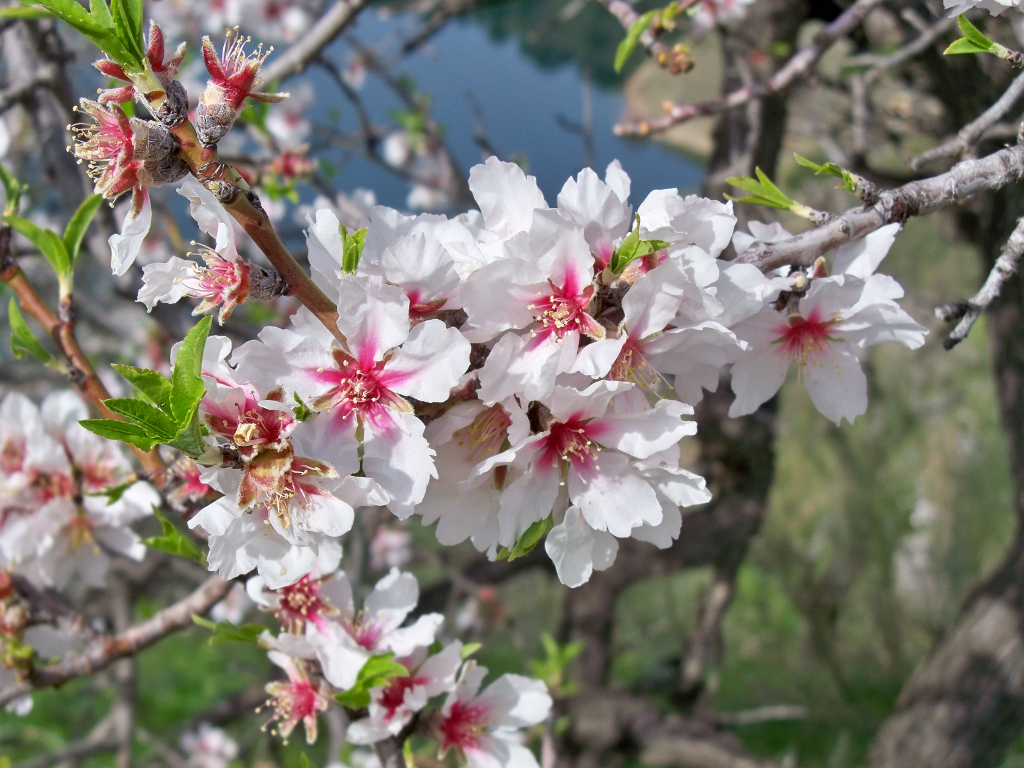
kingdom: Plantae
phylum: Tracheophyta
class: Magnoliopsida
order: Rosales
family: Rosaceae
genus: Prunus
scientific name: Prunus amygdalus
